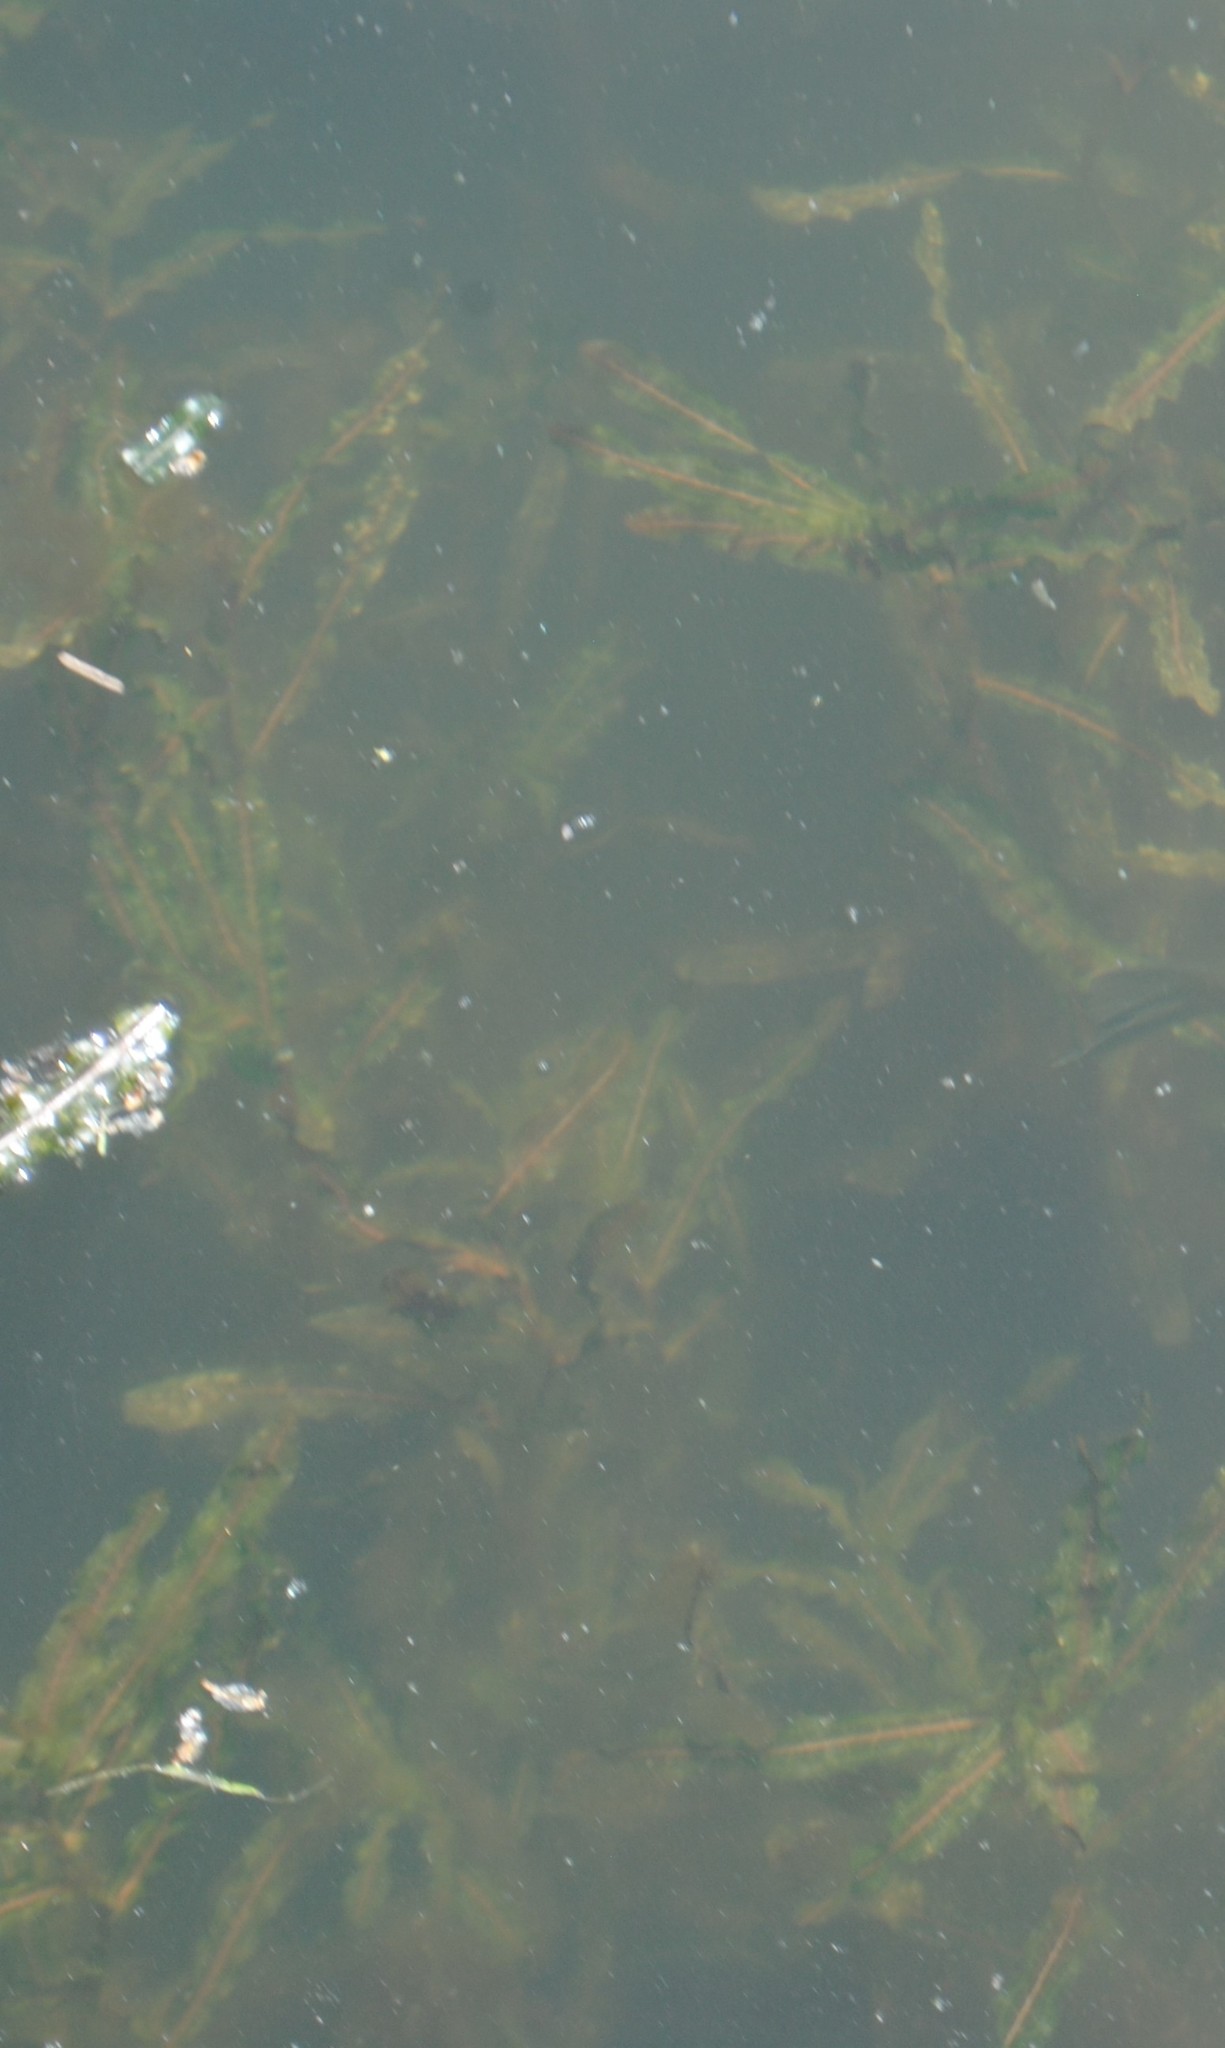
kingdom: Plantae
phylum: Tracheophyta
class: Liliopsida
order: Alismatales
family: Potamogetonaceae
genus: Potamogeton
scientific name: Potamogeton crispus
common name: Curled pondweed
